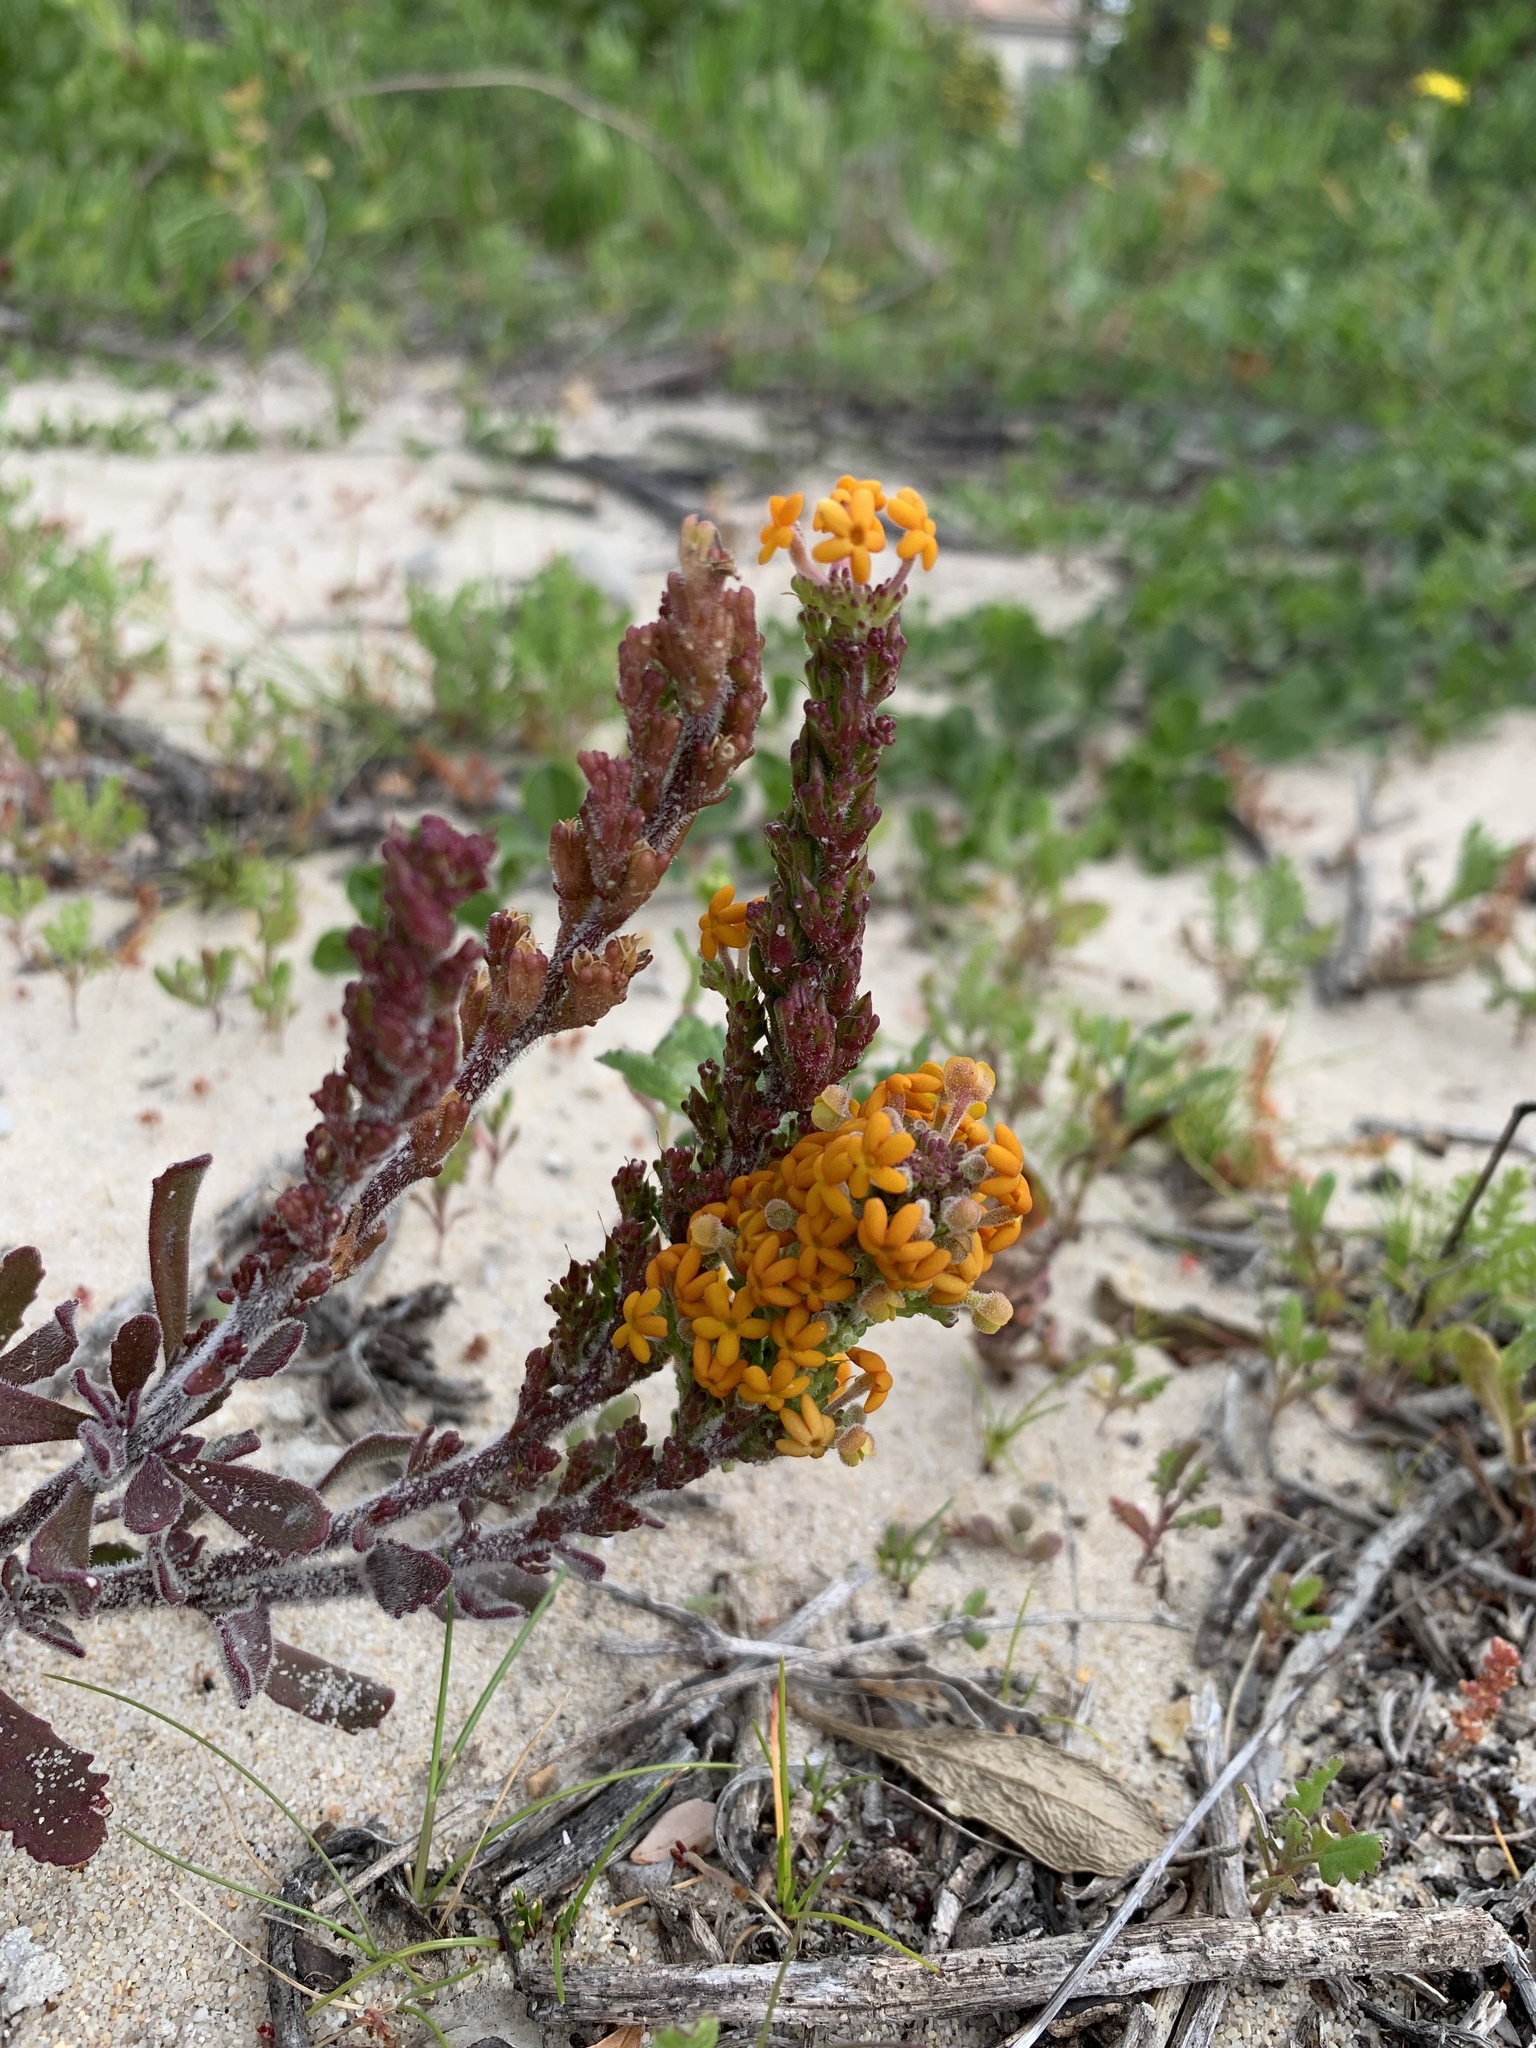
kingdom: Plantae
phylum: Tracheophyta
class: Magnoliopsida
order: Lamiales
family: Scrophulariaceae
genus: Manulea
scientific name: Manulea tomentosa
